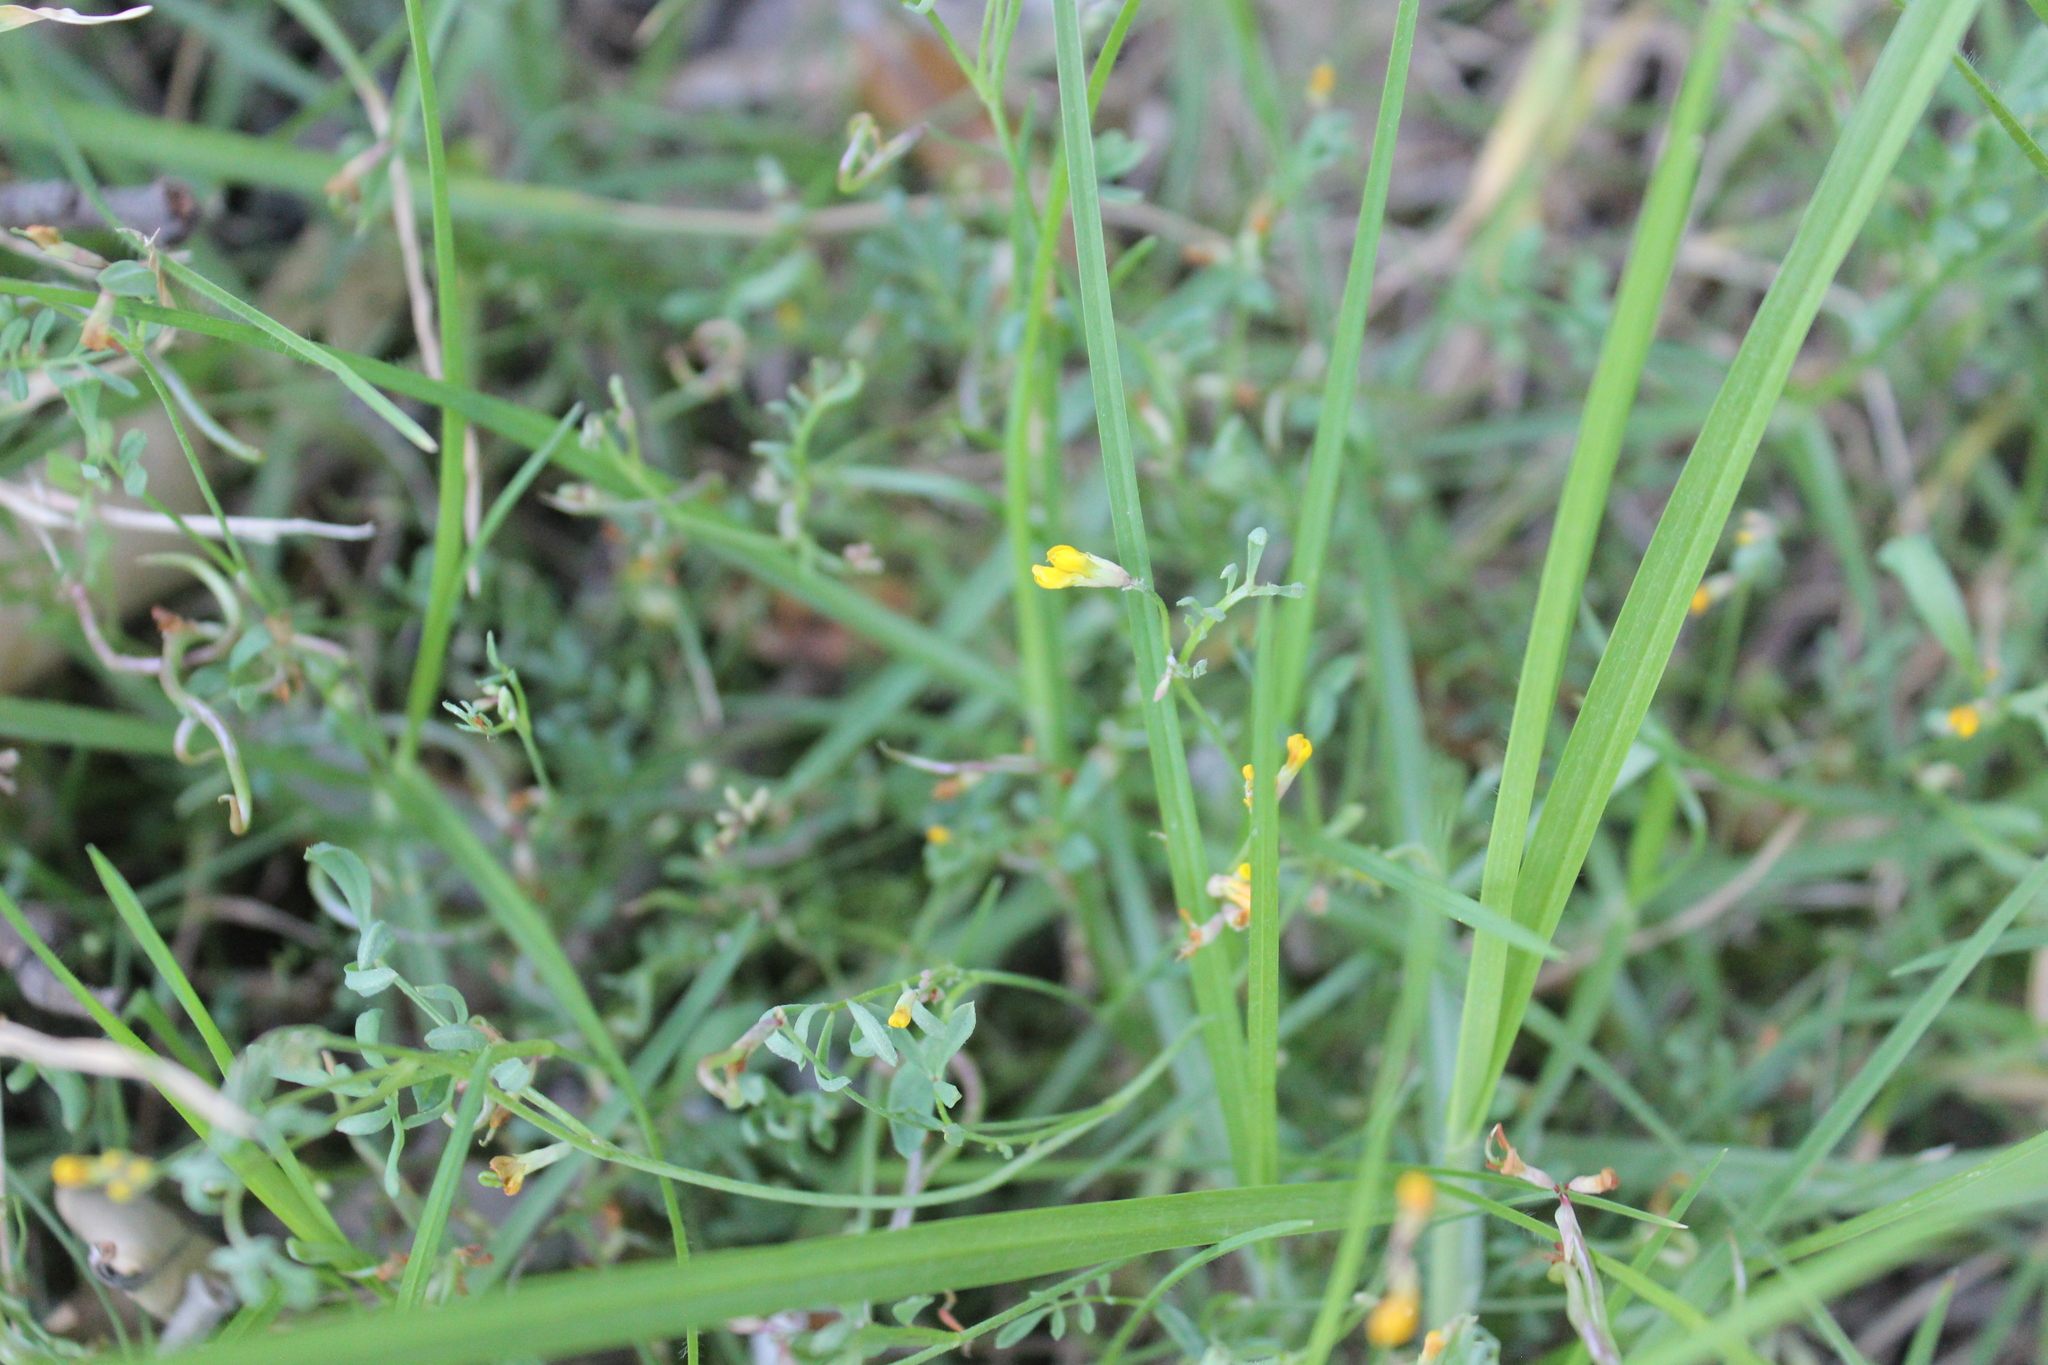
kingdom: Plantae
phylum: Tracheophyta
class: Magnoliopsida
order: Fabales
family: Fabaceae
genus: Ornithopus
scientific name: Ornithopus pinnatus
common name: Orange bird's-foot
